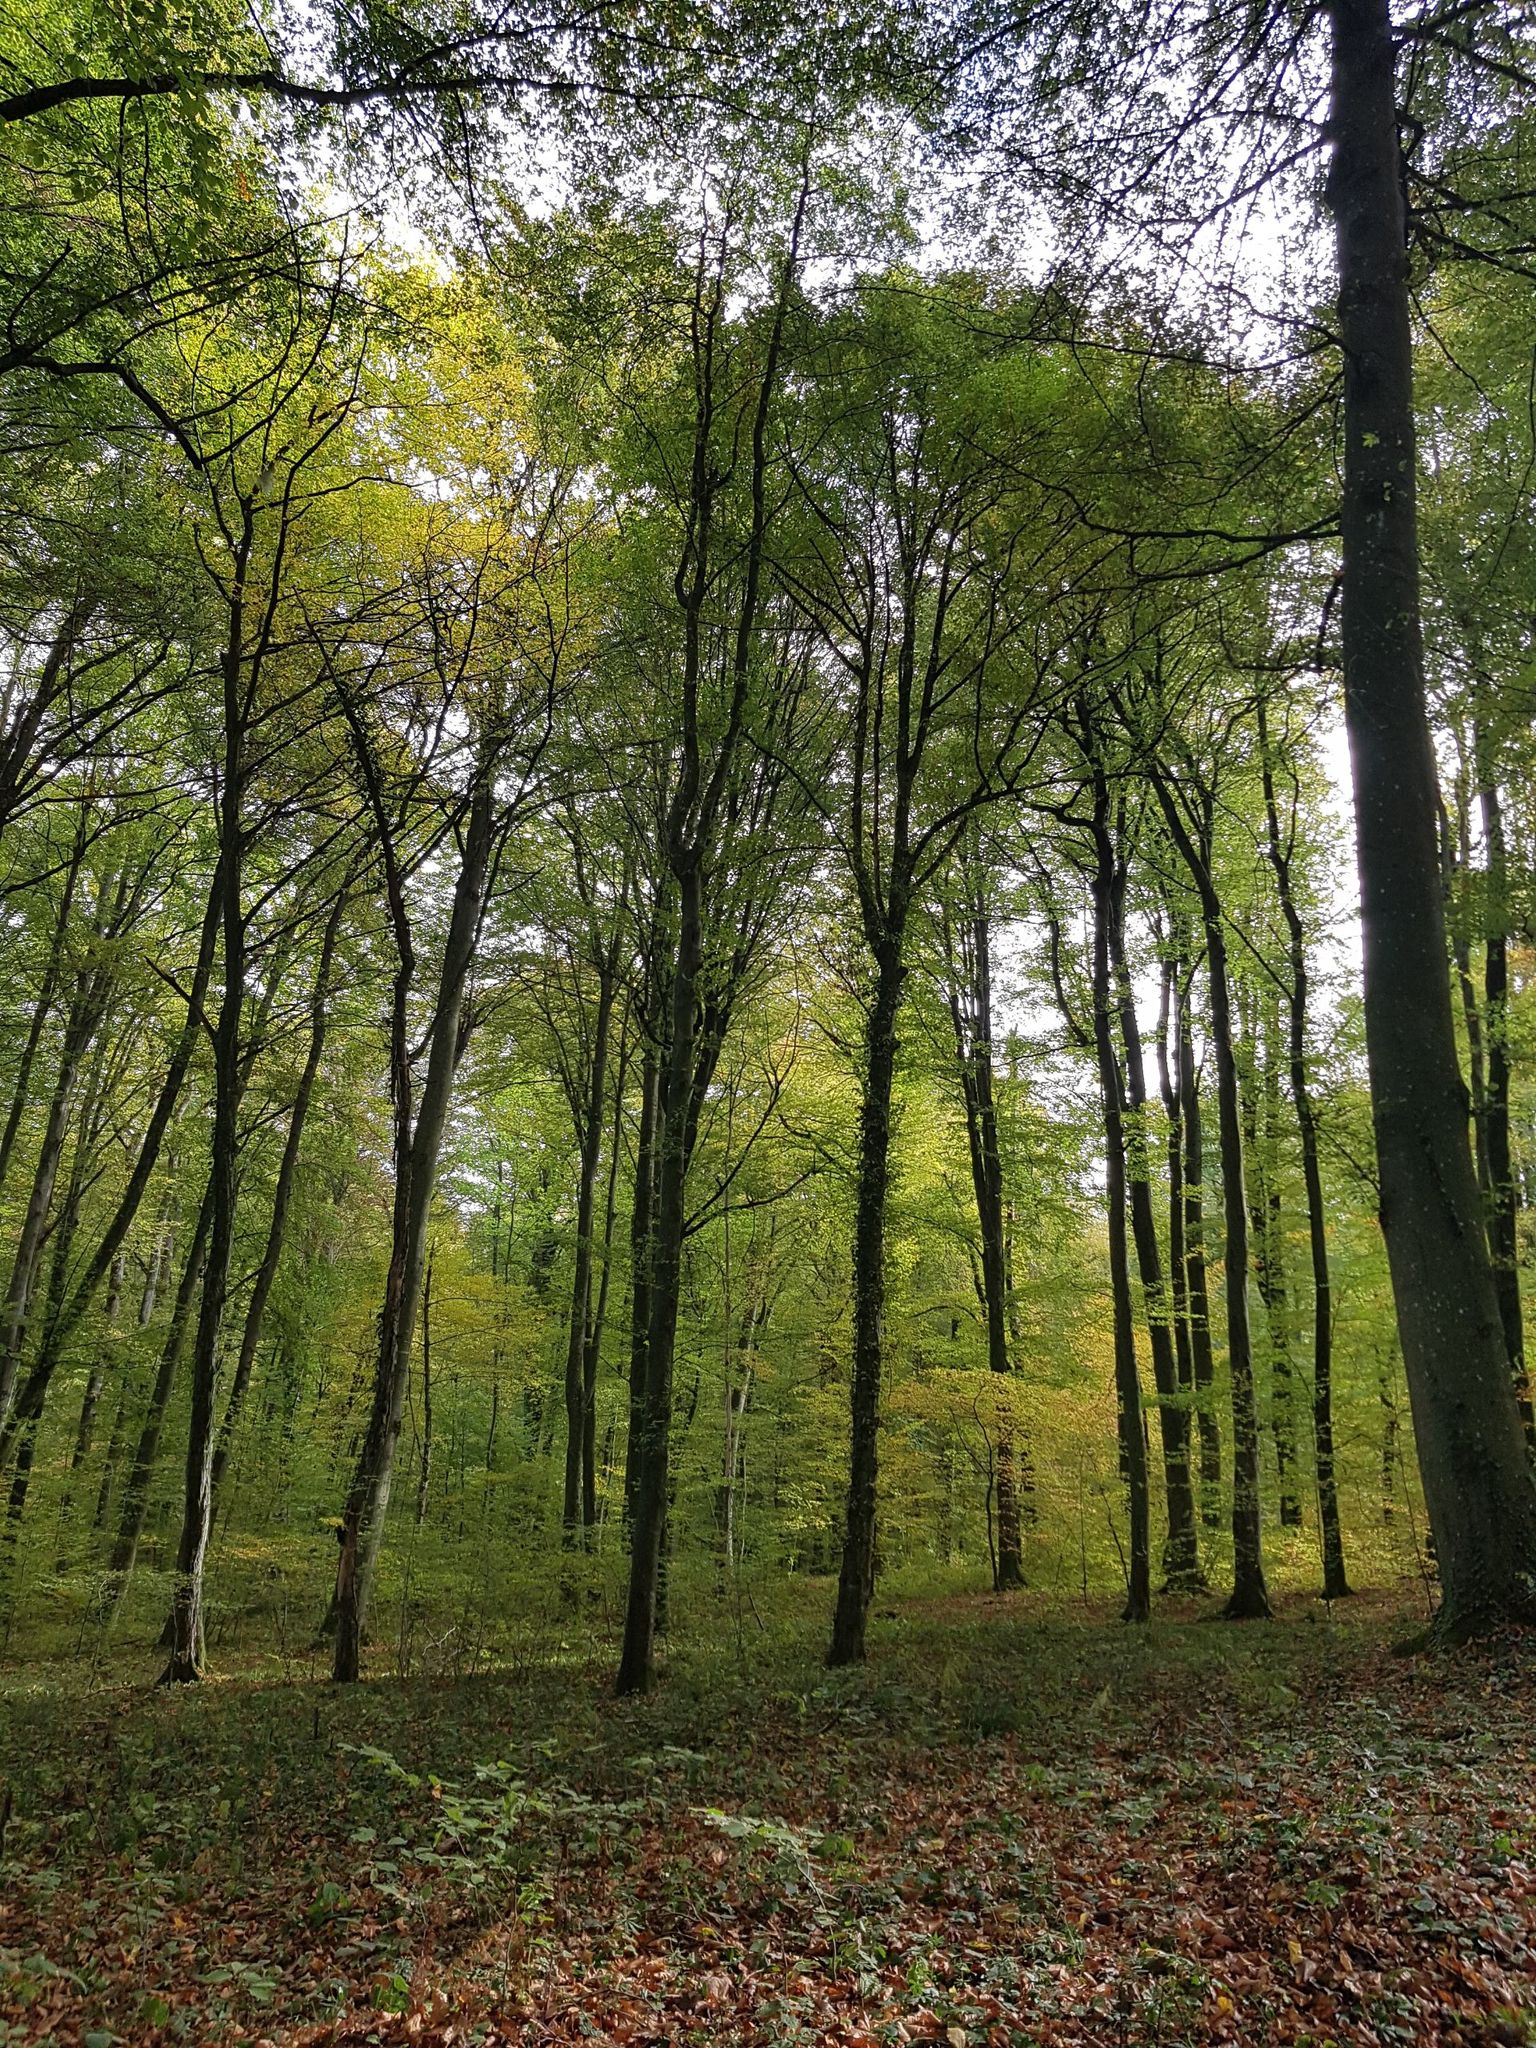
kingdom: Plantae
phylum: Tracheophyta
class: Magnoliopsida
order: Fagales
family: Fagaceae
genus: Fagus
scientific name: Fagus sylvatica
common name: Beech
